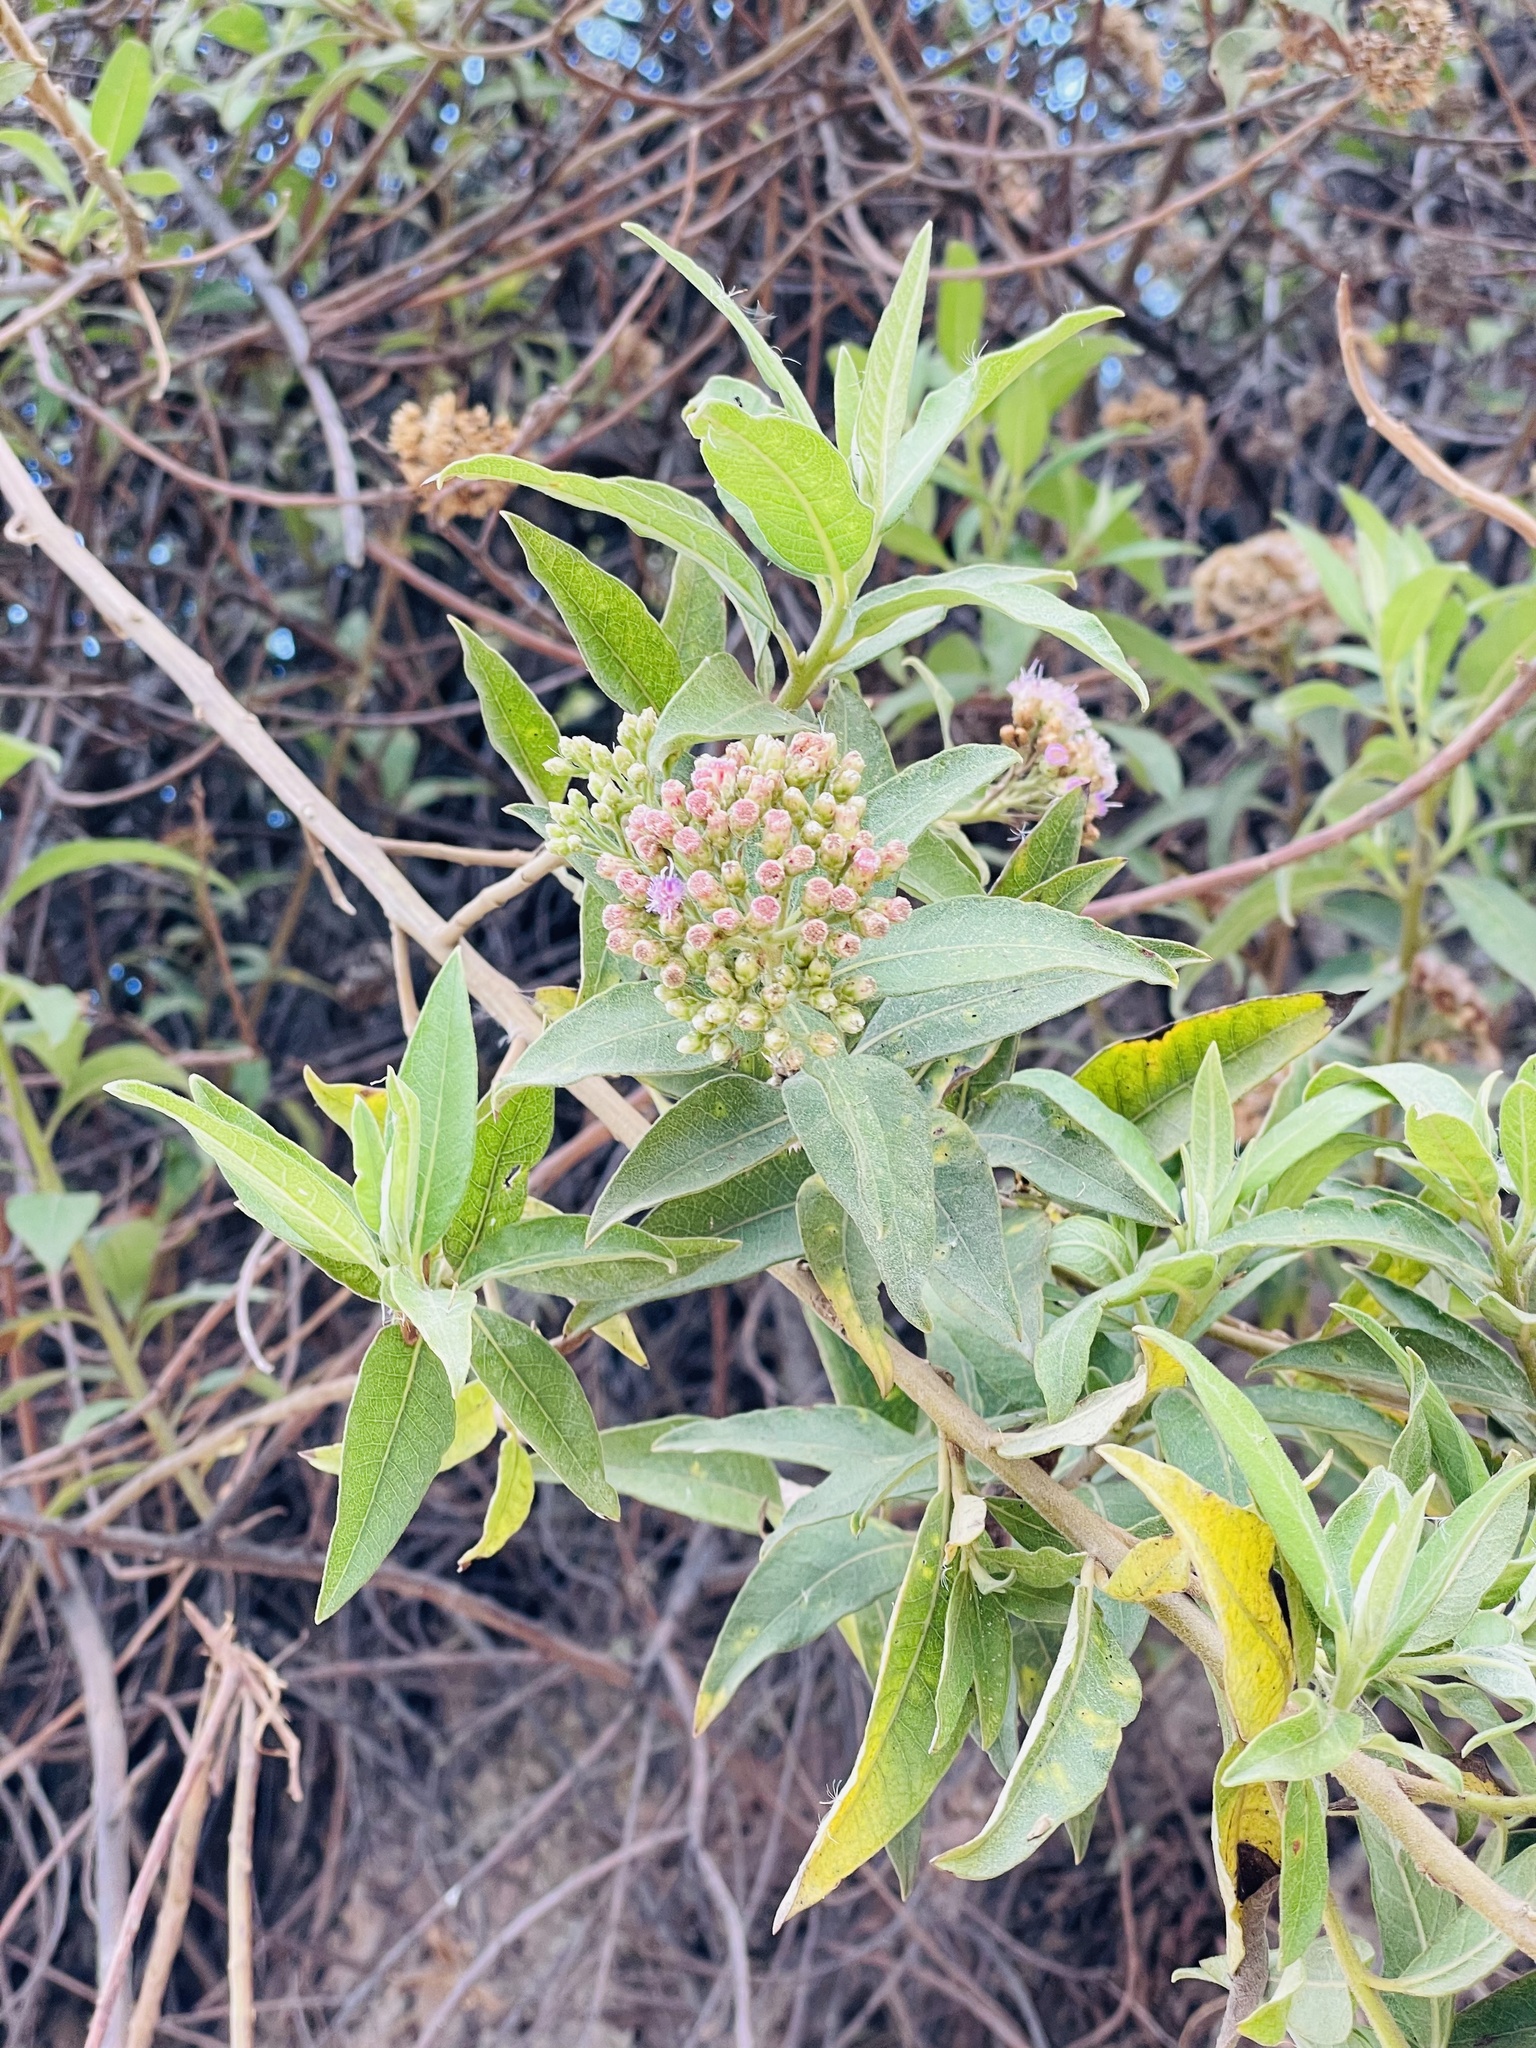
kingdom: Plantae
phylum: Tracheophyta
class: Magnoliopsida
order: Asterales
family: Asteraceae
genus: Tessaria
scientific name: Tessaria andina
